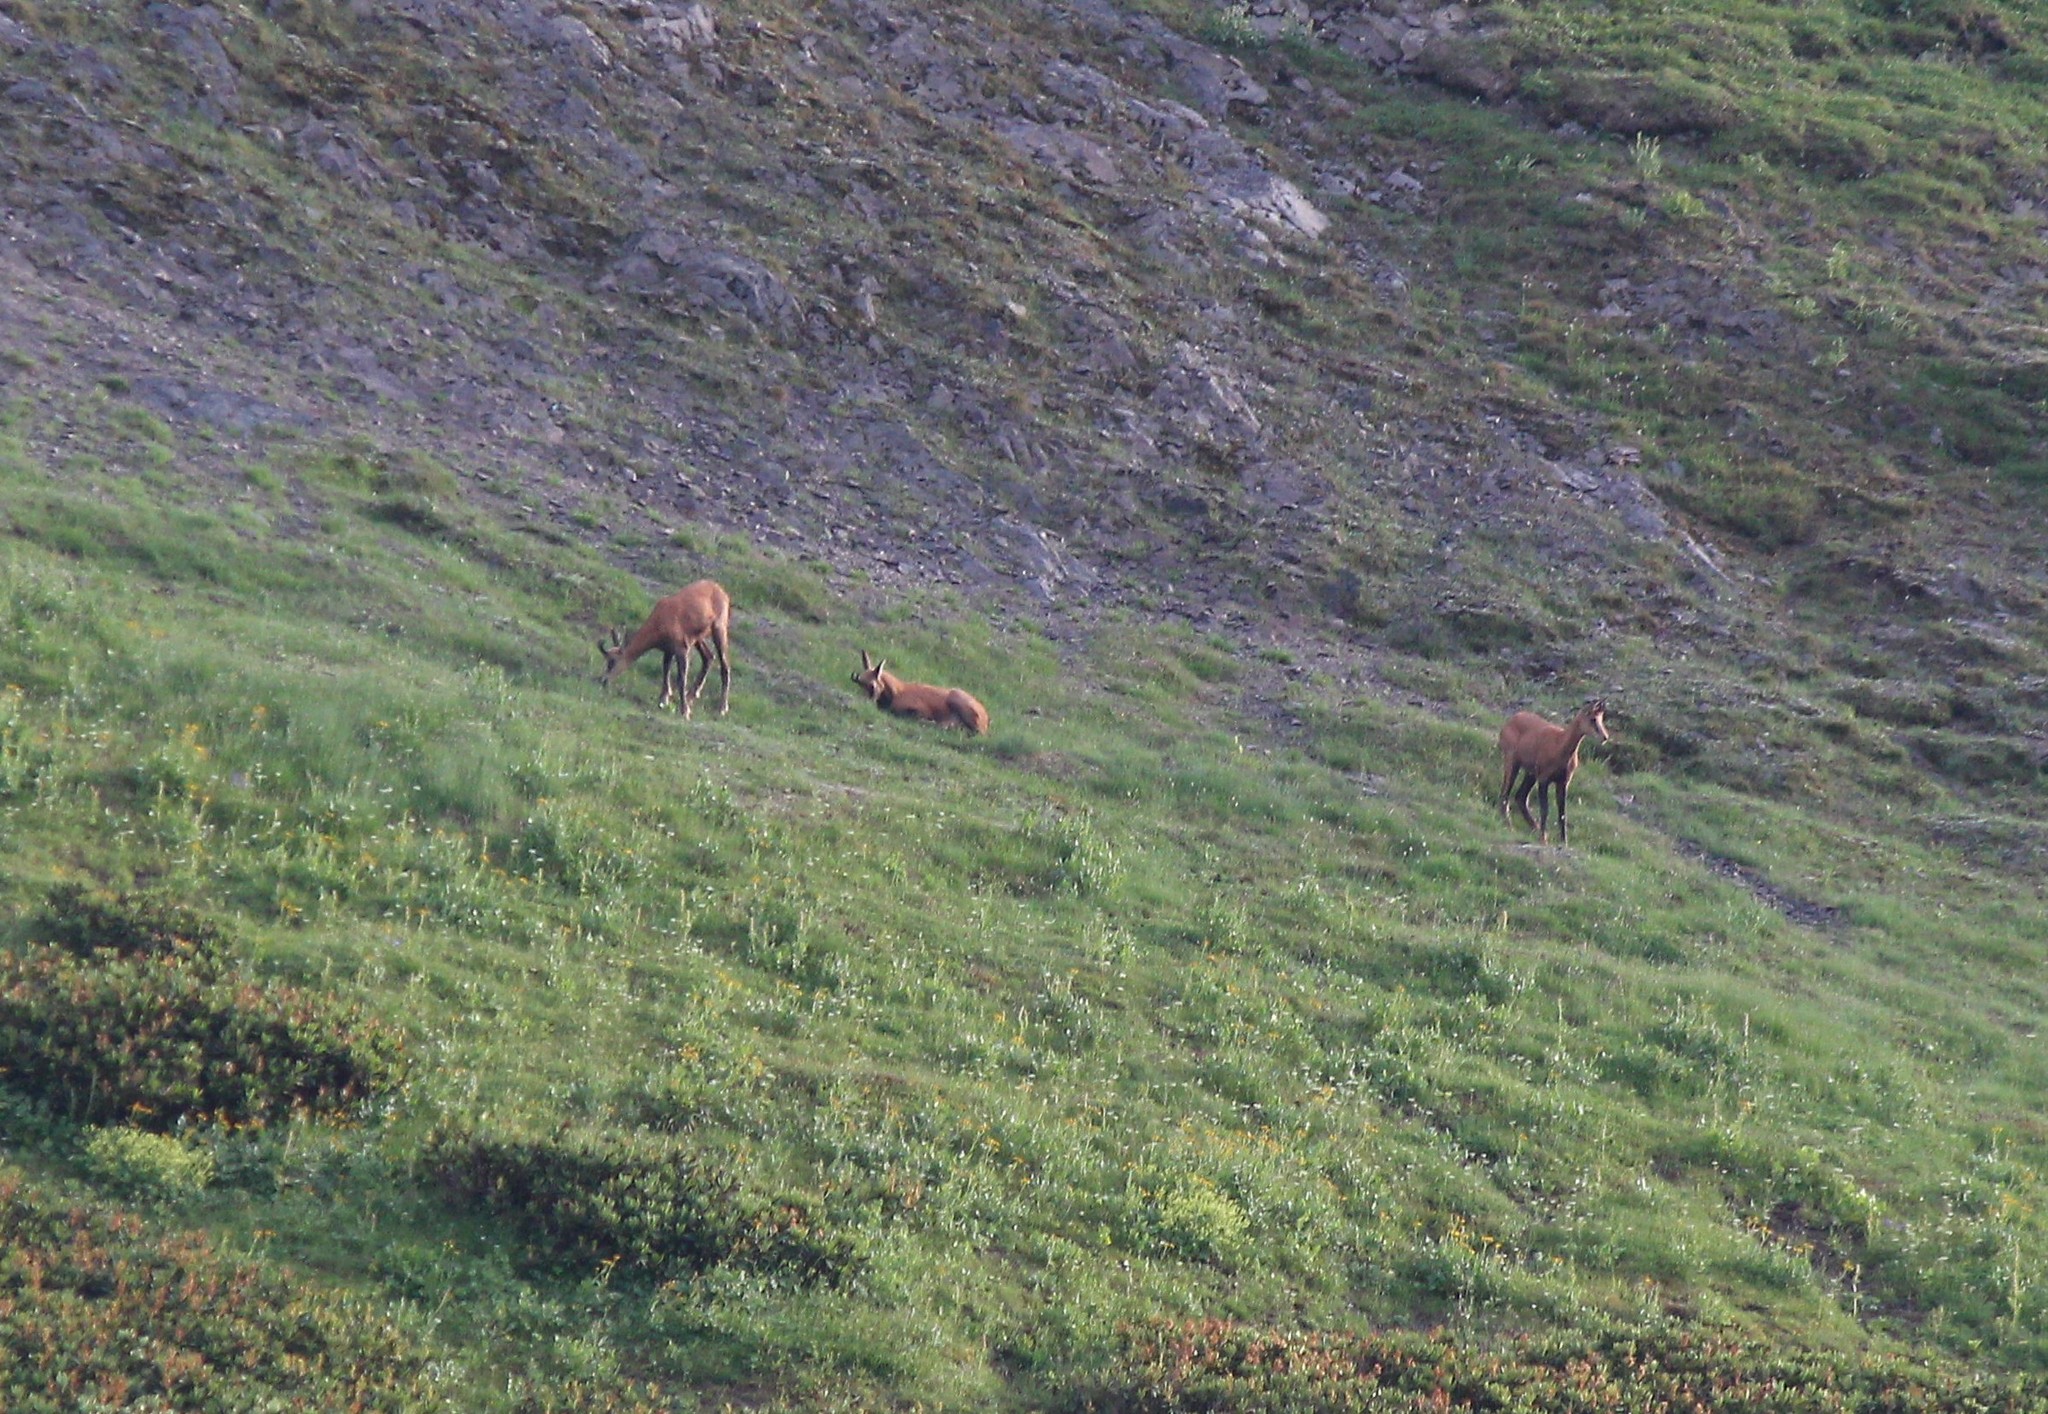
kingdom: Animalia
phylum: Chordata
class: Mammalia
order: Artiodactyla
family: Bovidae
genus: Rupicapra
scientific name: Rupicapra rupicapra
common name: Chamois
